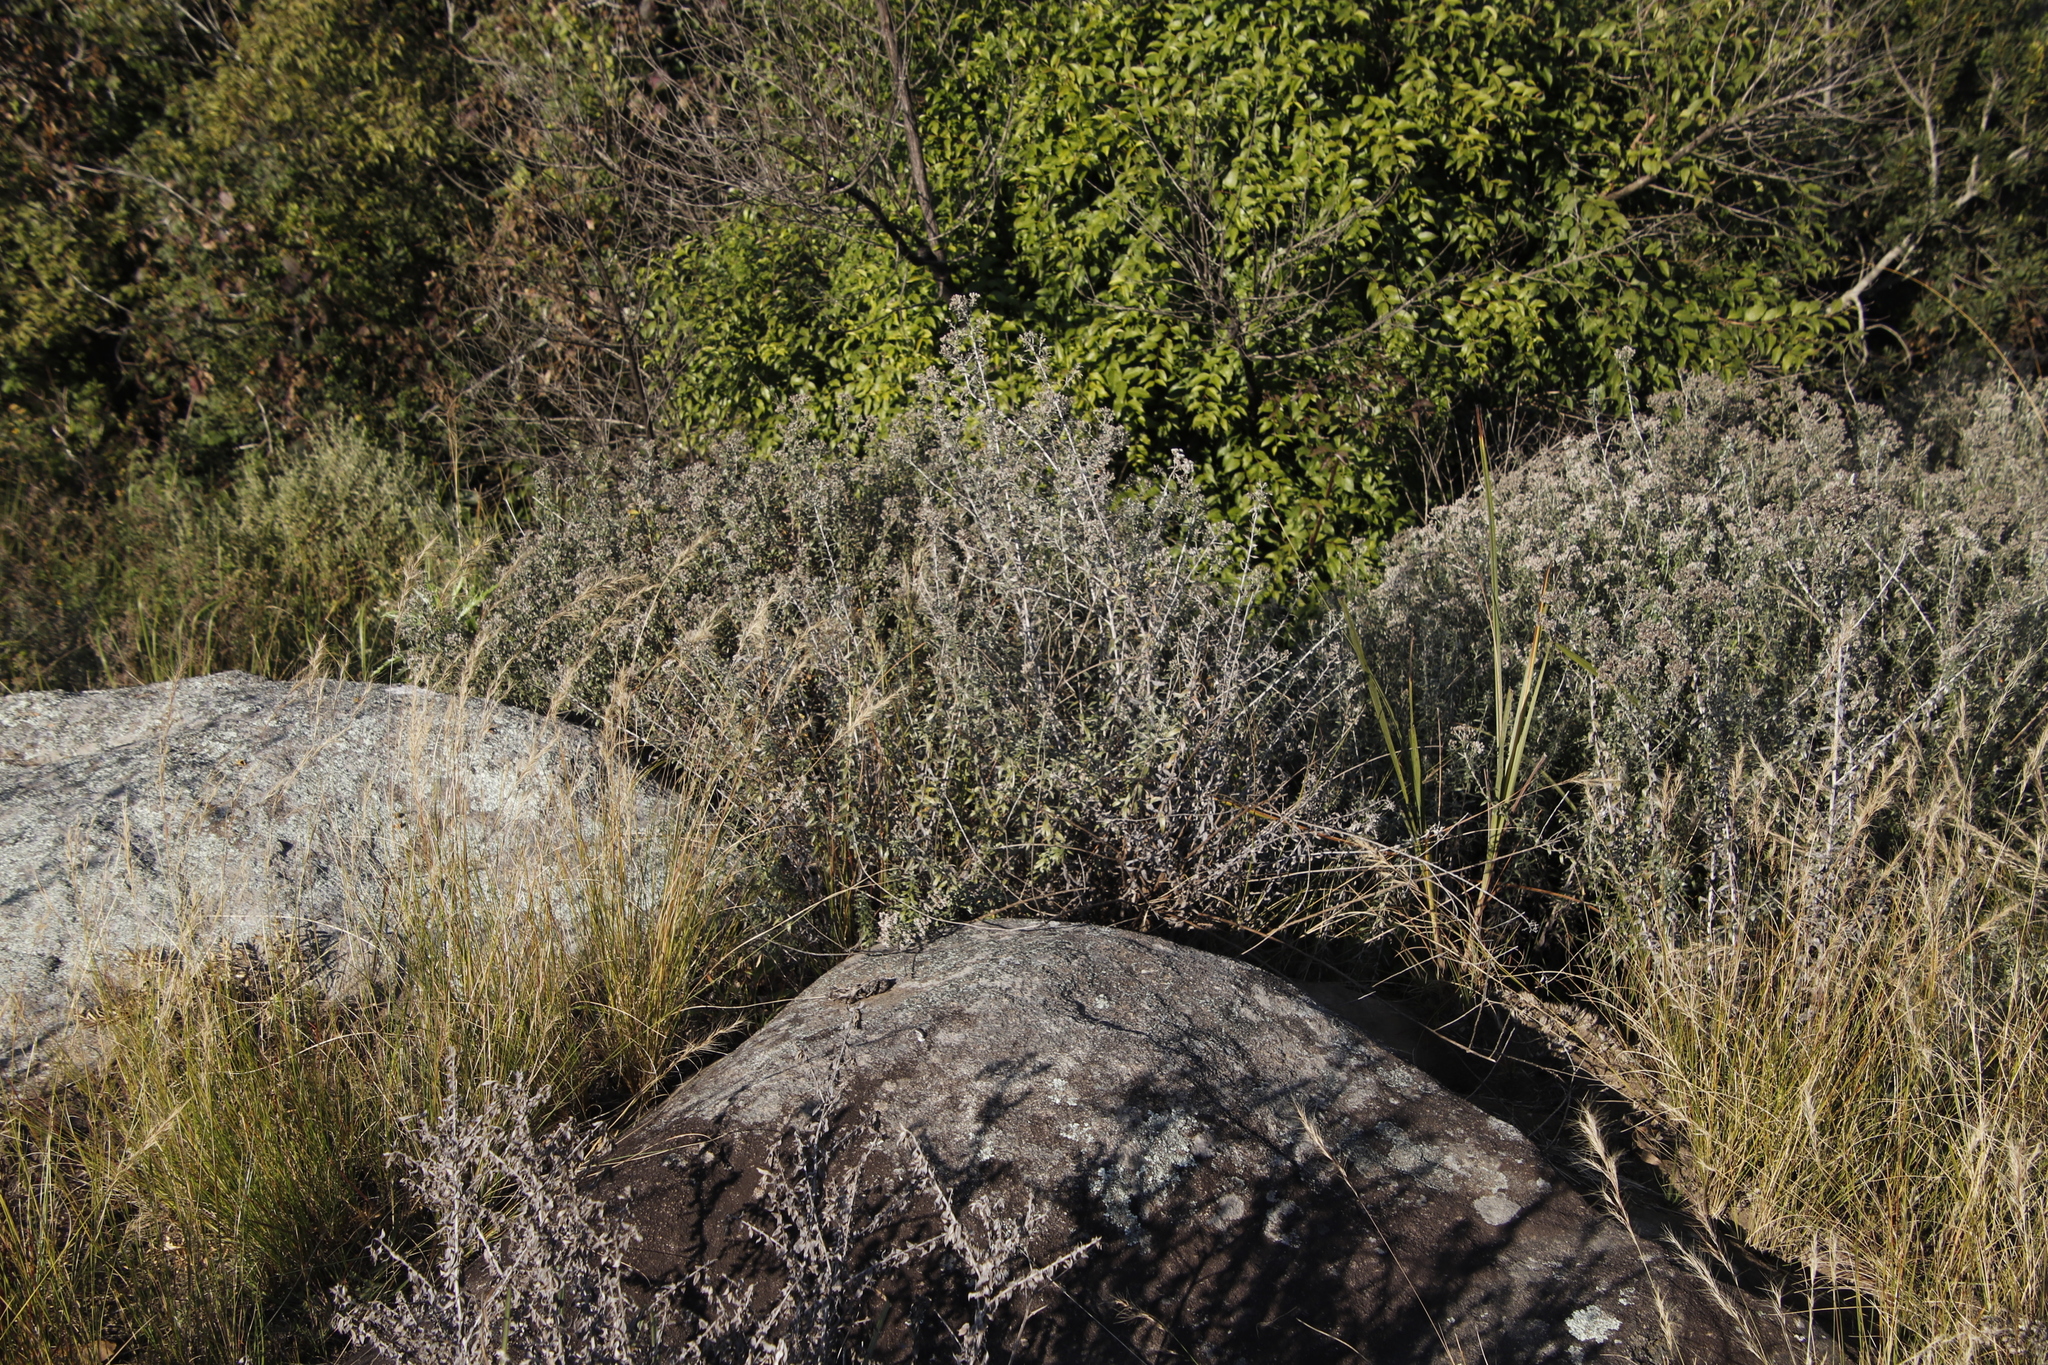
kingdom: Plantae
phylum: Tracheophyta
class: Magnoliopsida
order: Asterales
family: Asteraceae
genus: Tenrhynea
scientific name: Tenrhynea phylicifolia
